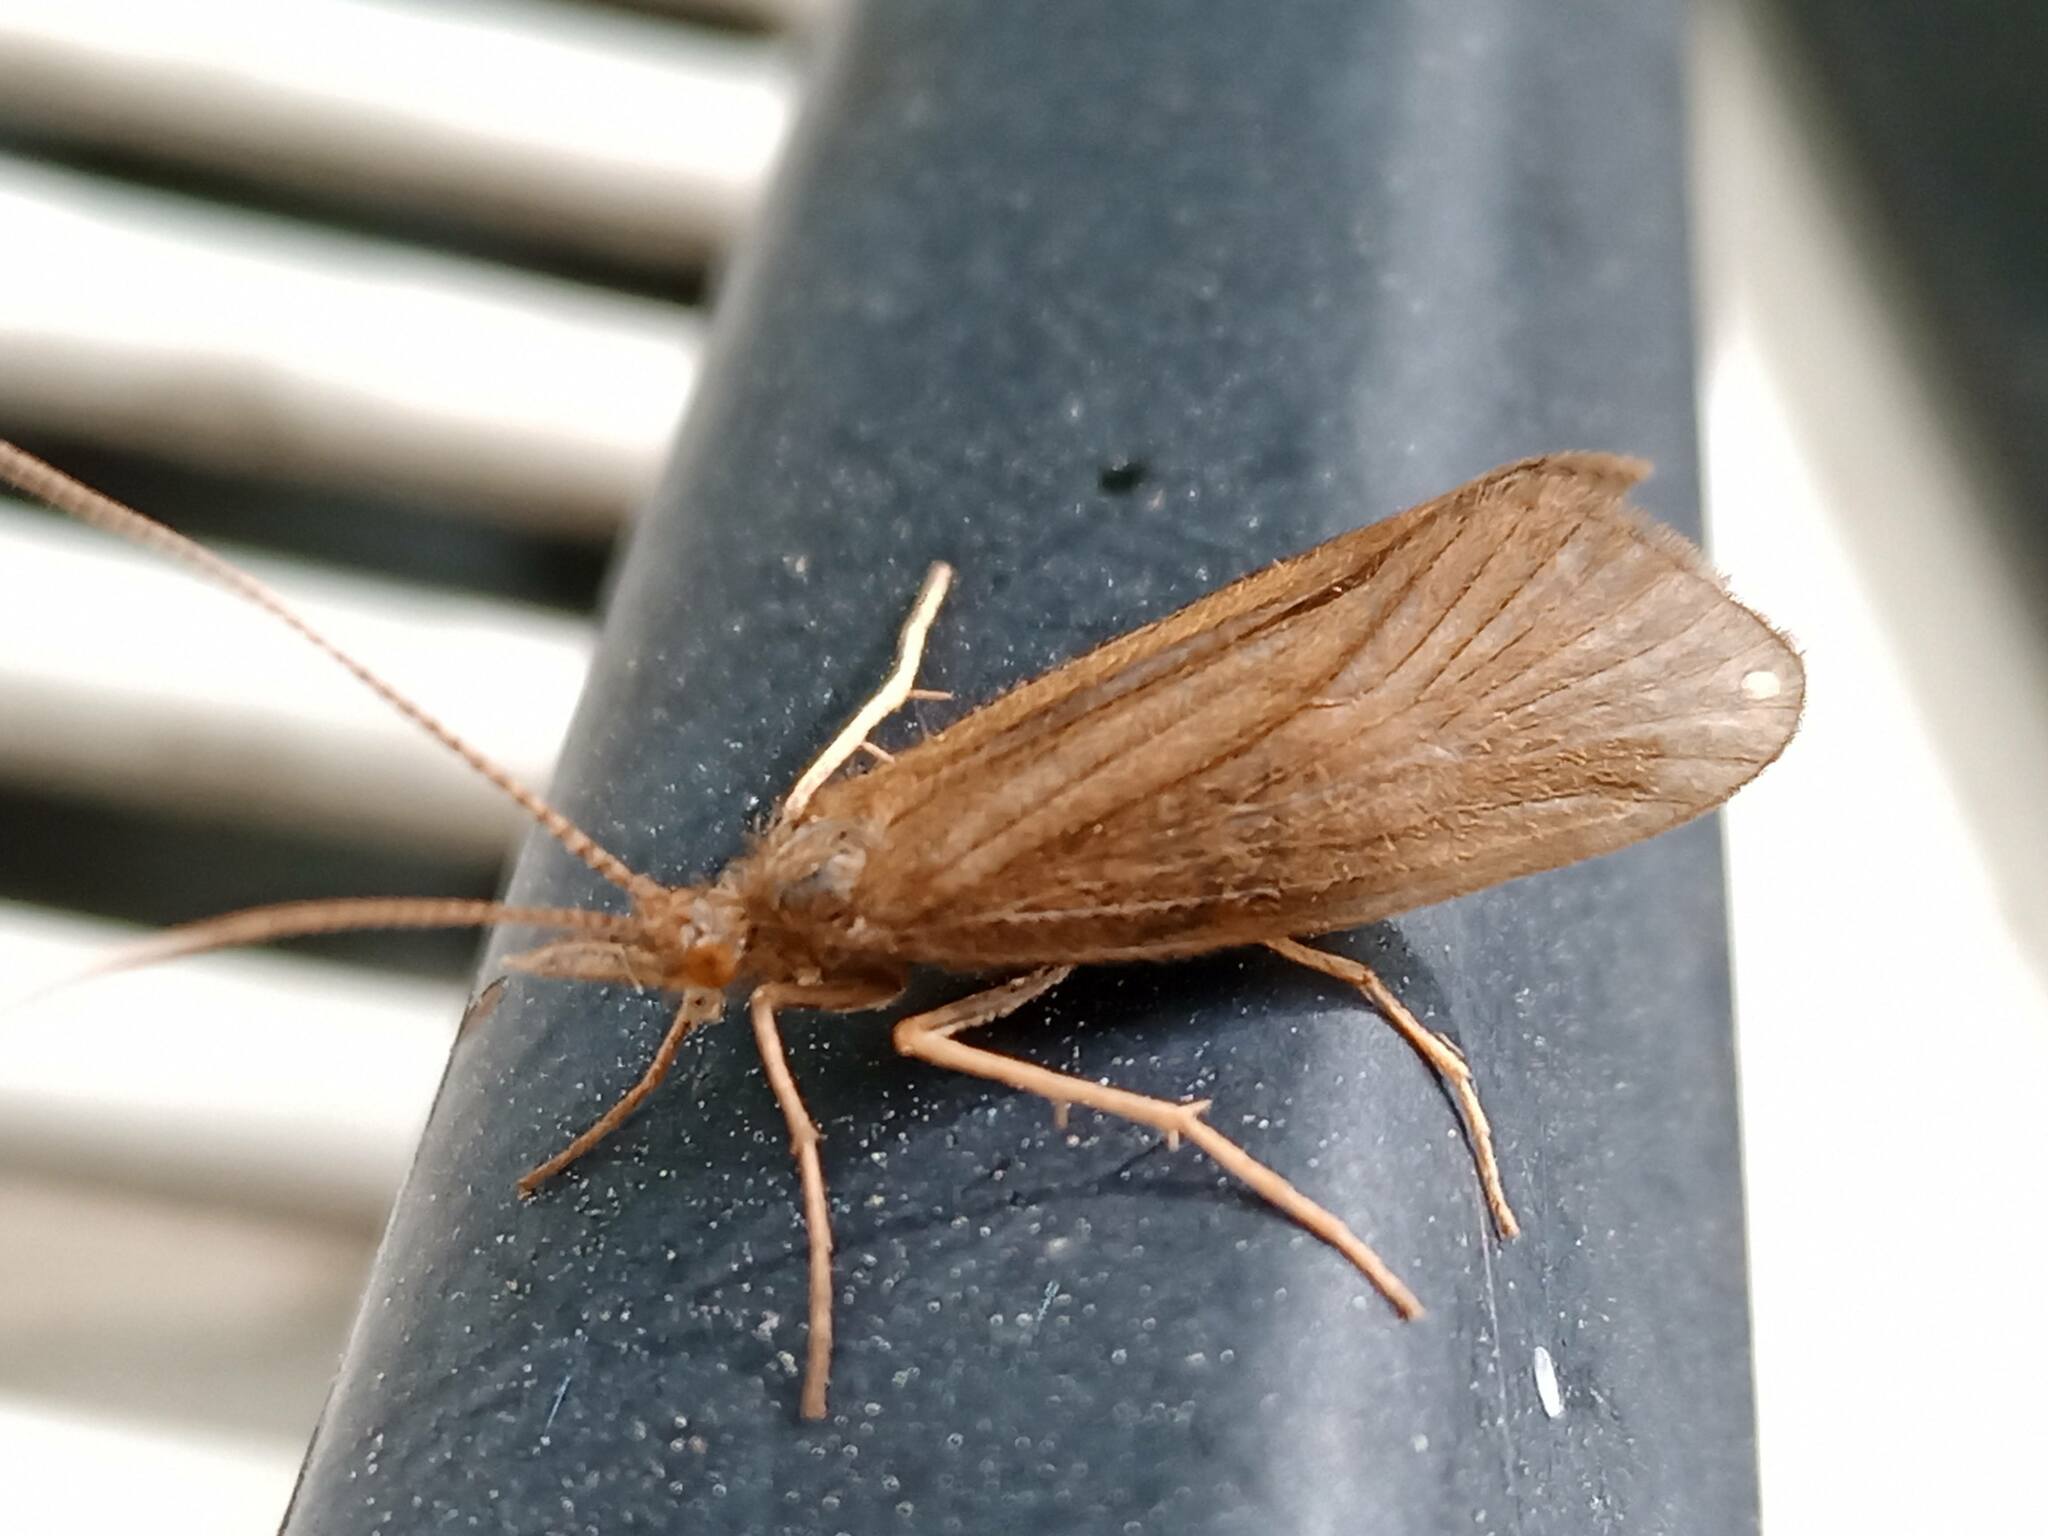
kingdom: Animalia
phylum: Arthropoda
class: Insecta
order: Trichoptera
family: Calamoceratidae
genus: Calamoceras
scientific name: Calamoceras marsupus
